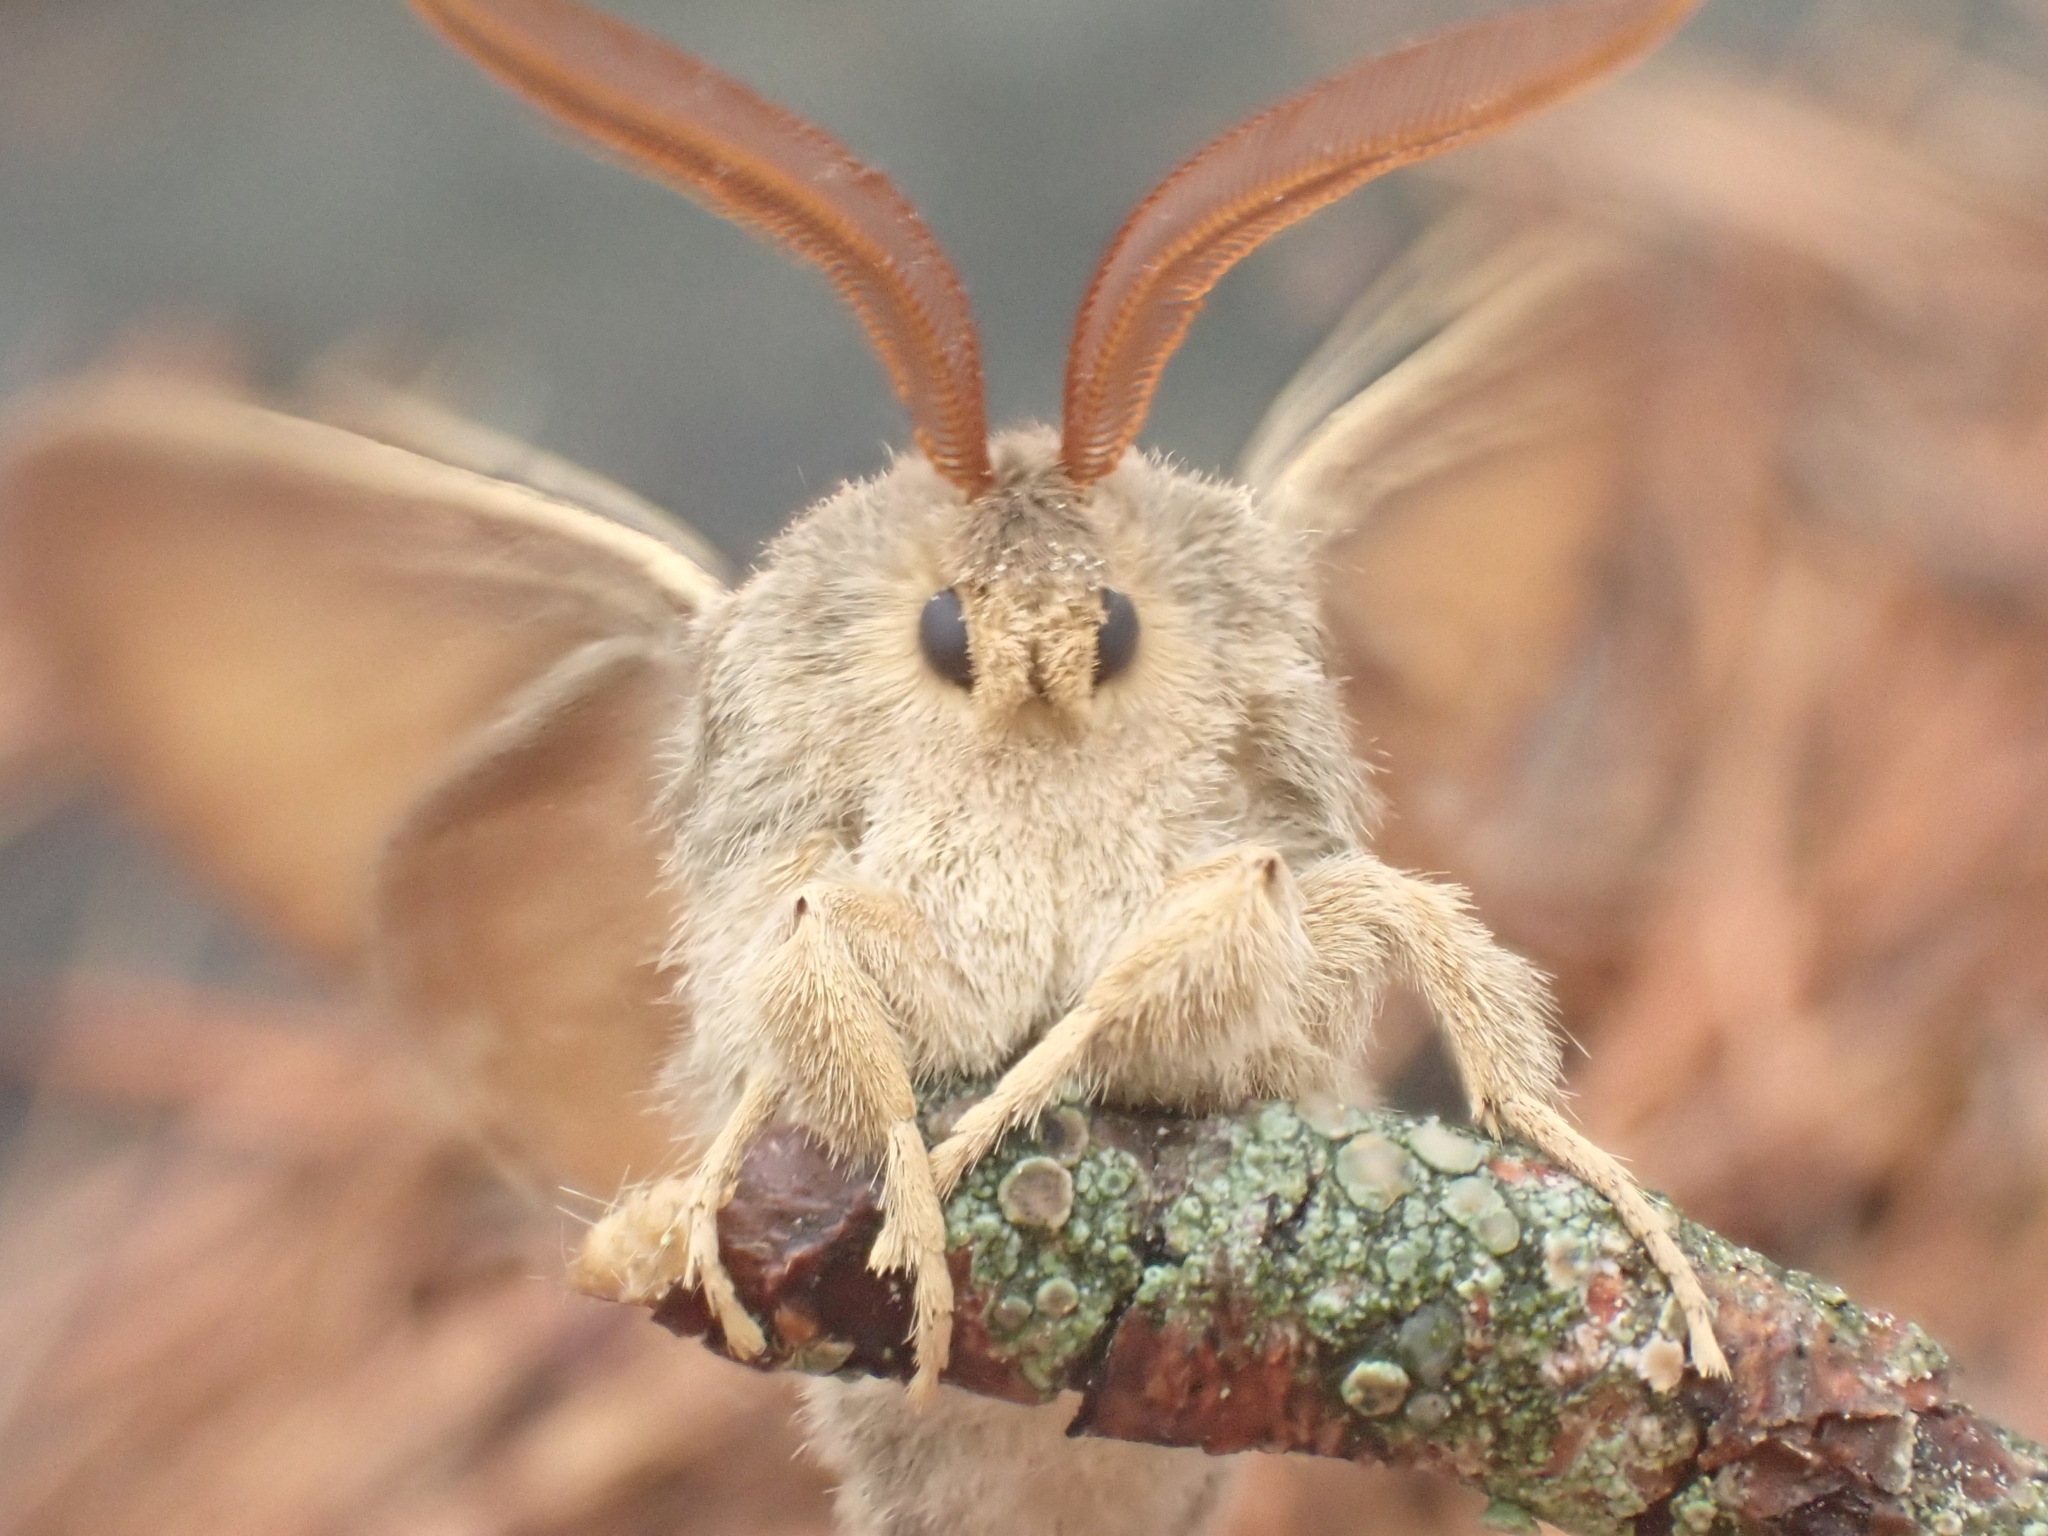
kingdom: Animalia
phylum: Arthropoda
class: Insecta
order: Lepidoptera
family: Lasiocampidae
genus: Macrothylacia
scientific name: Macrothylacia rubi
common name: Fox moth
